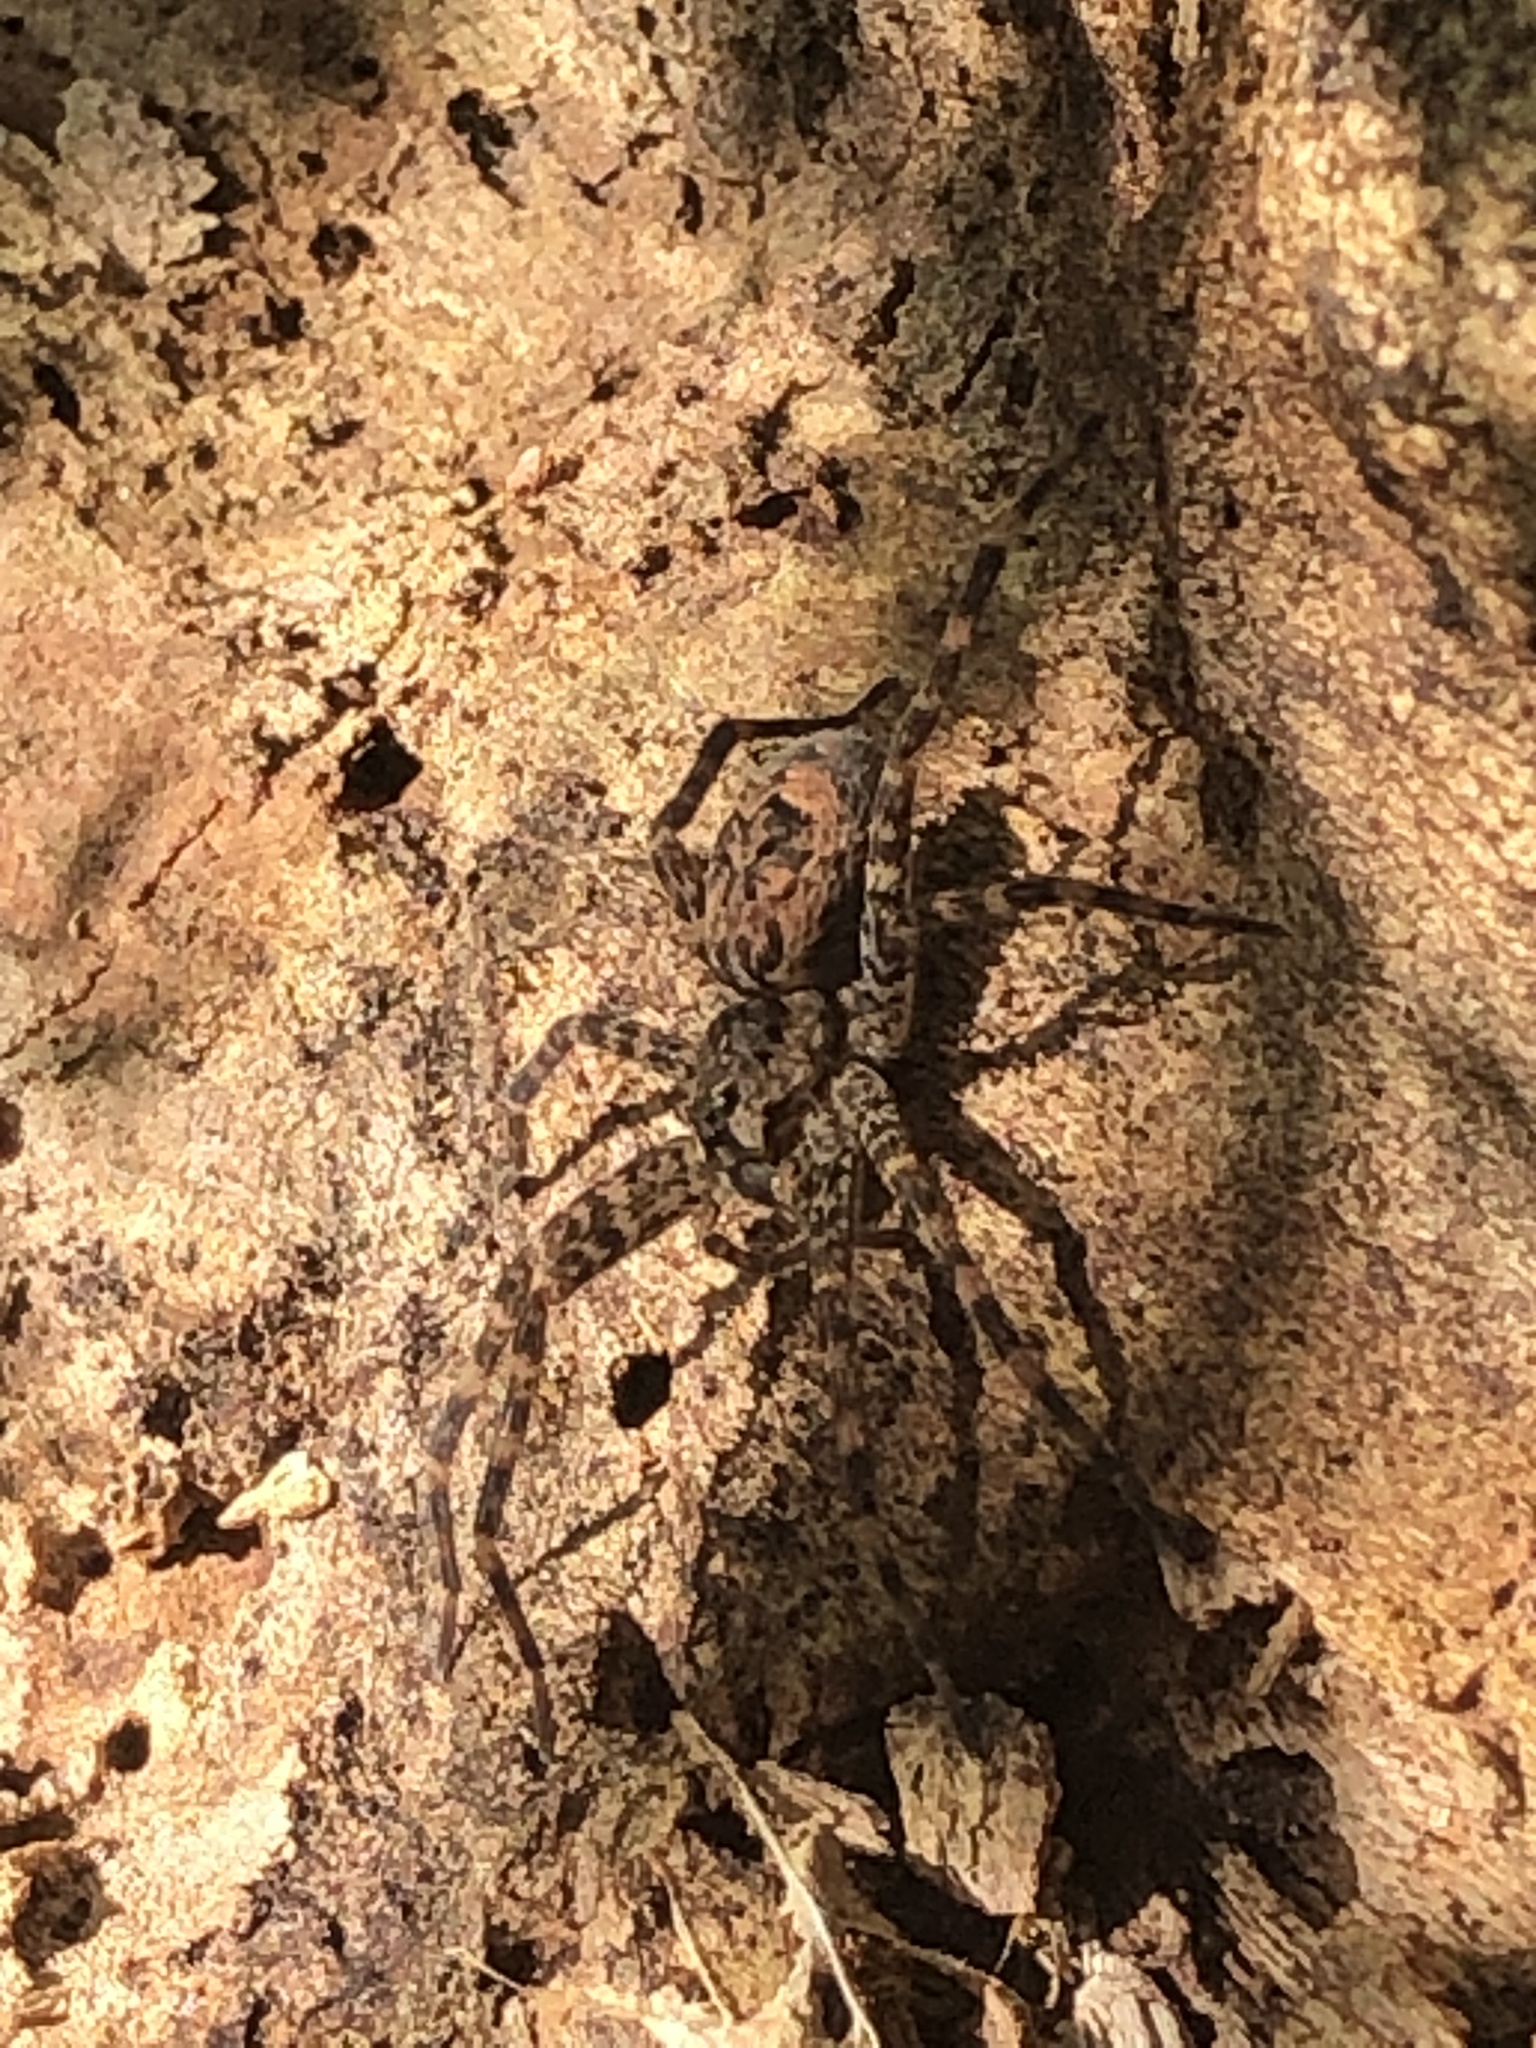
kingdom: Animalia
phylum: Arthropoda
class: Arachnida
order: Araneae
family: Pisauridae
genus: Dolomedes
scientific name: Dolomedes tenebrosus
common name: Dark fishing spider
